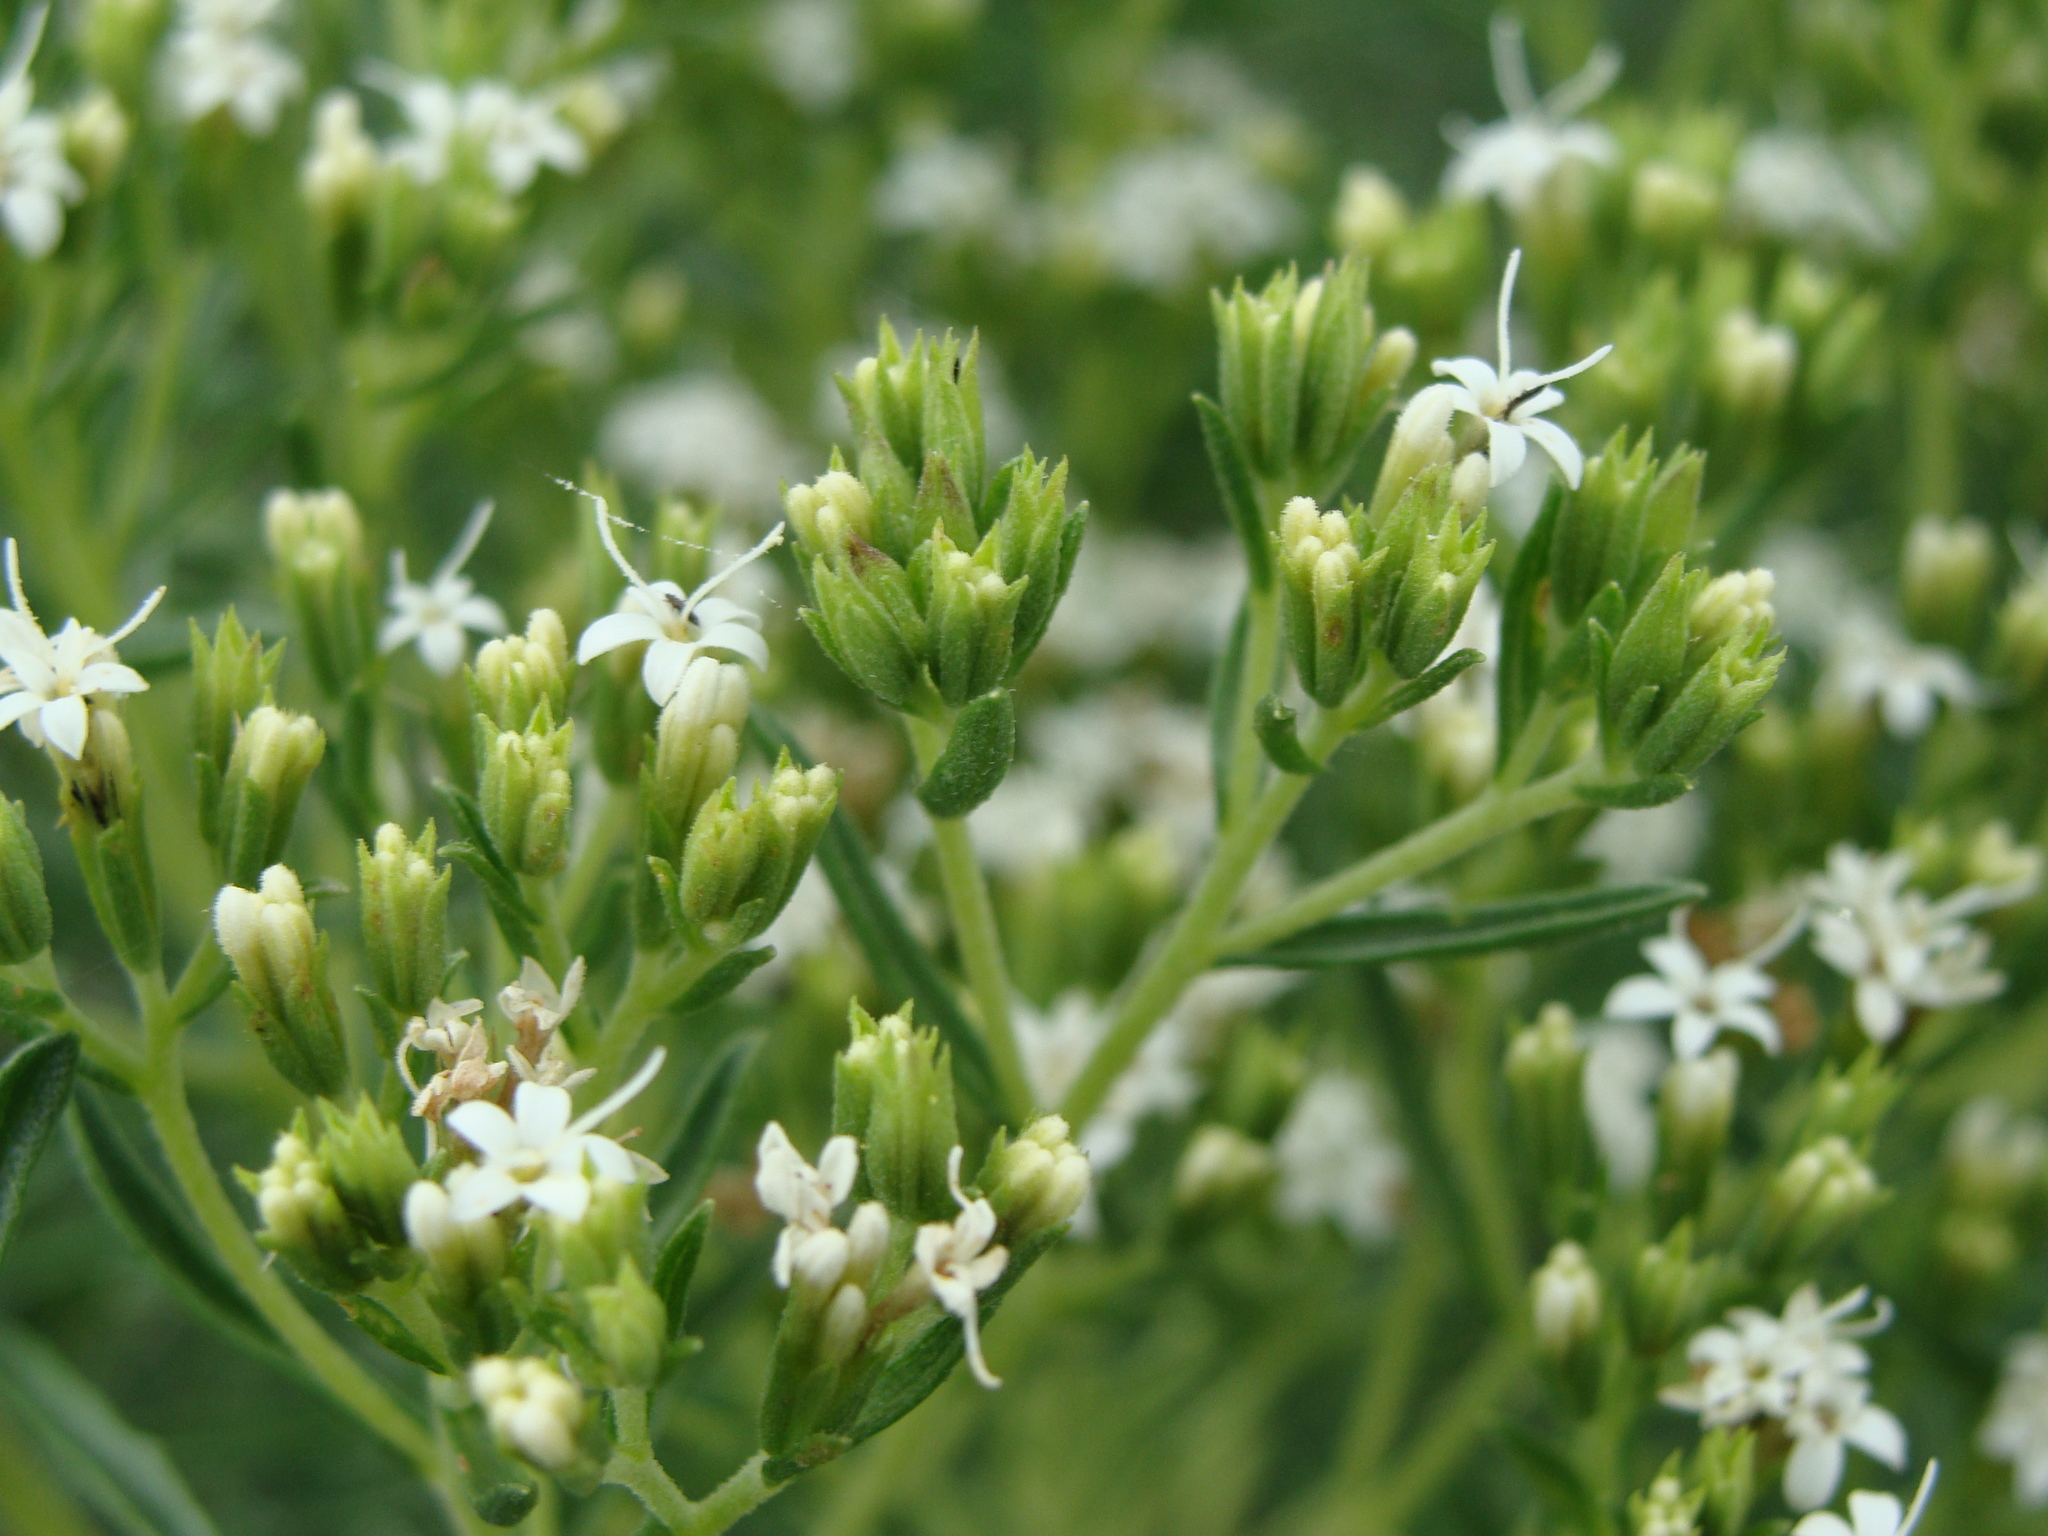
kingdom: Plantae
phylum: Tracheophyta
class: Magnoliopsida
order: Asterales
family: Asteraceae
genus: Stevia
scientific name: Stevia serrata
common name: Sawtooth candyleaf
